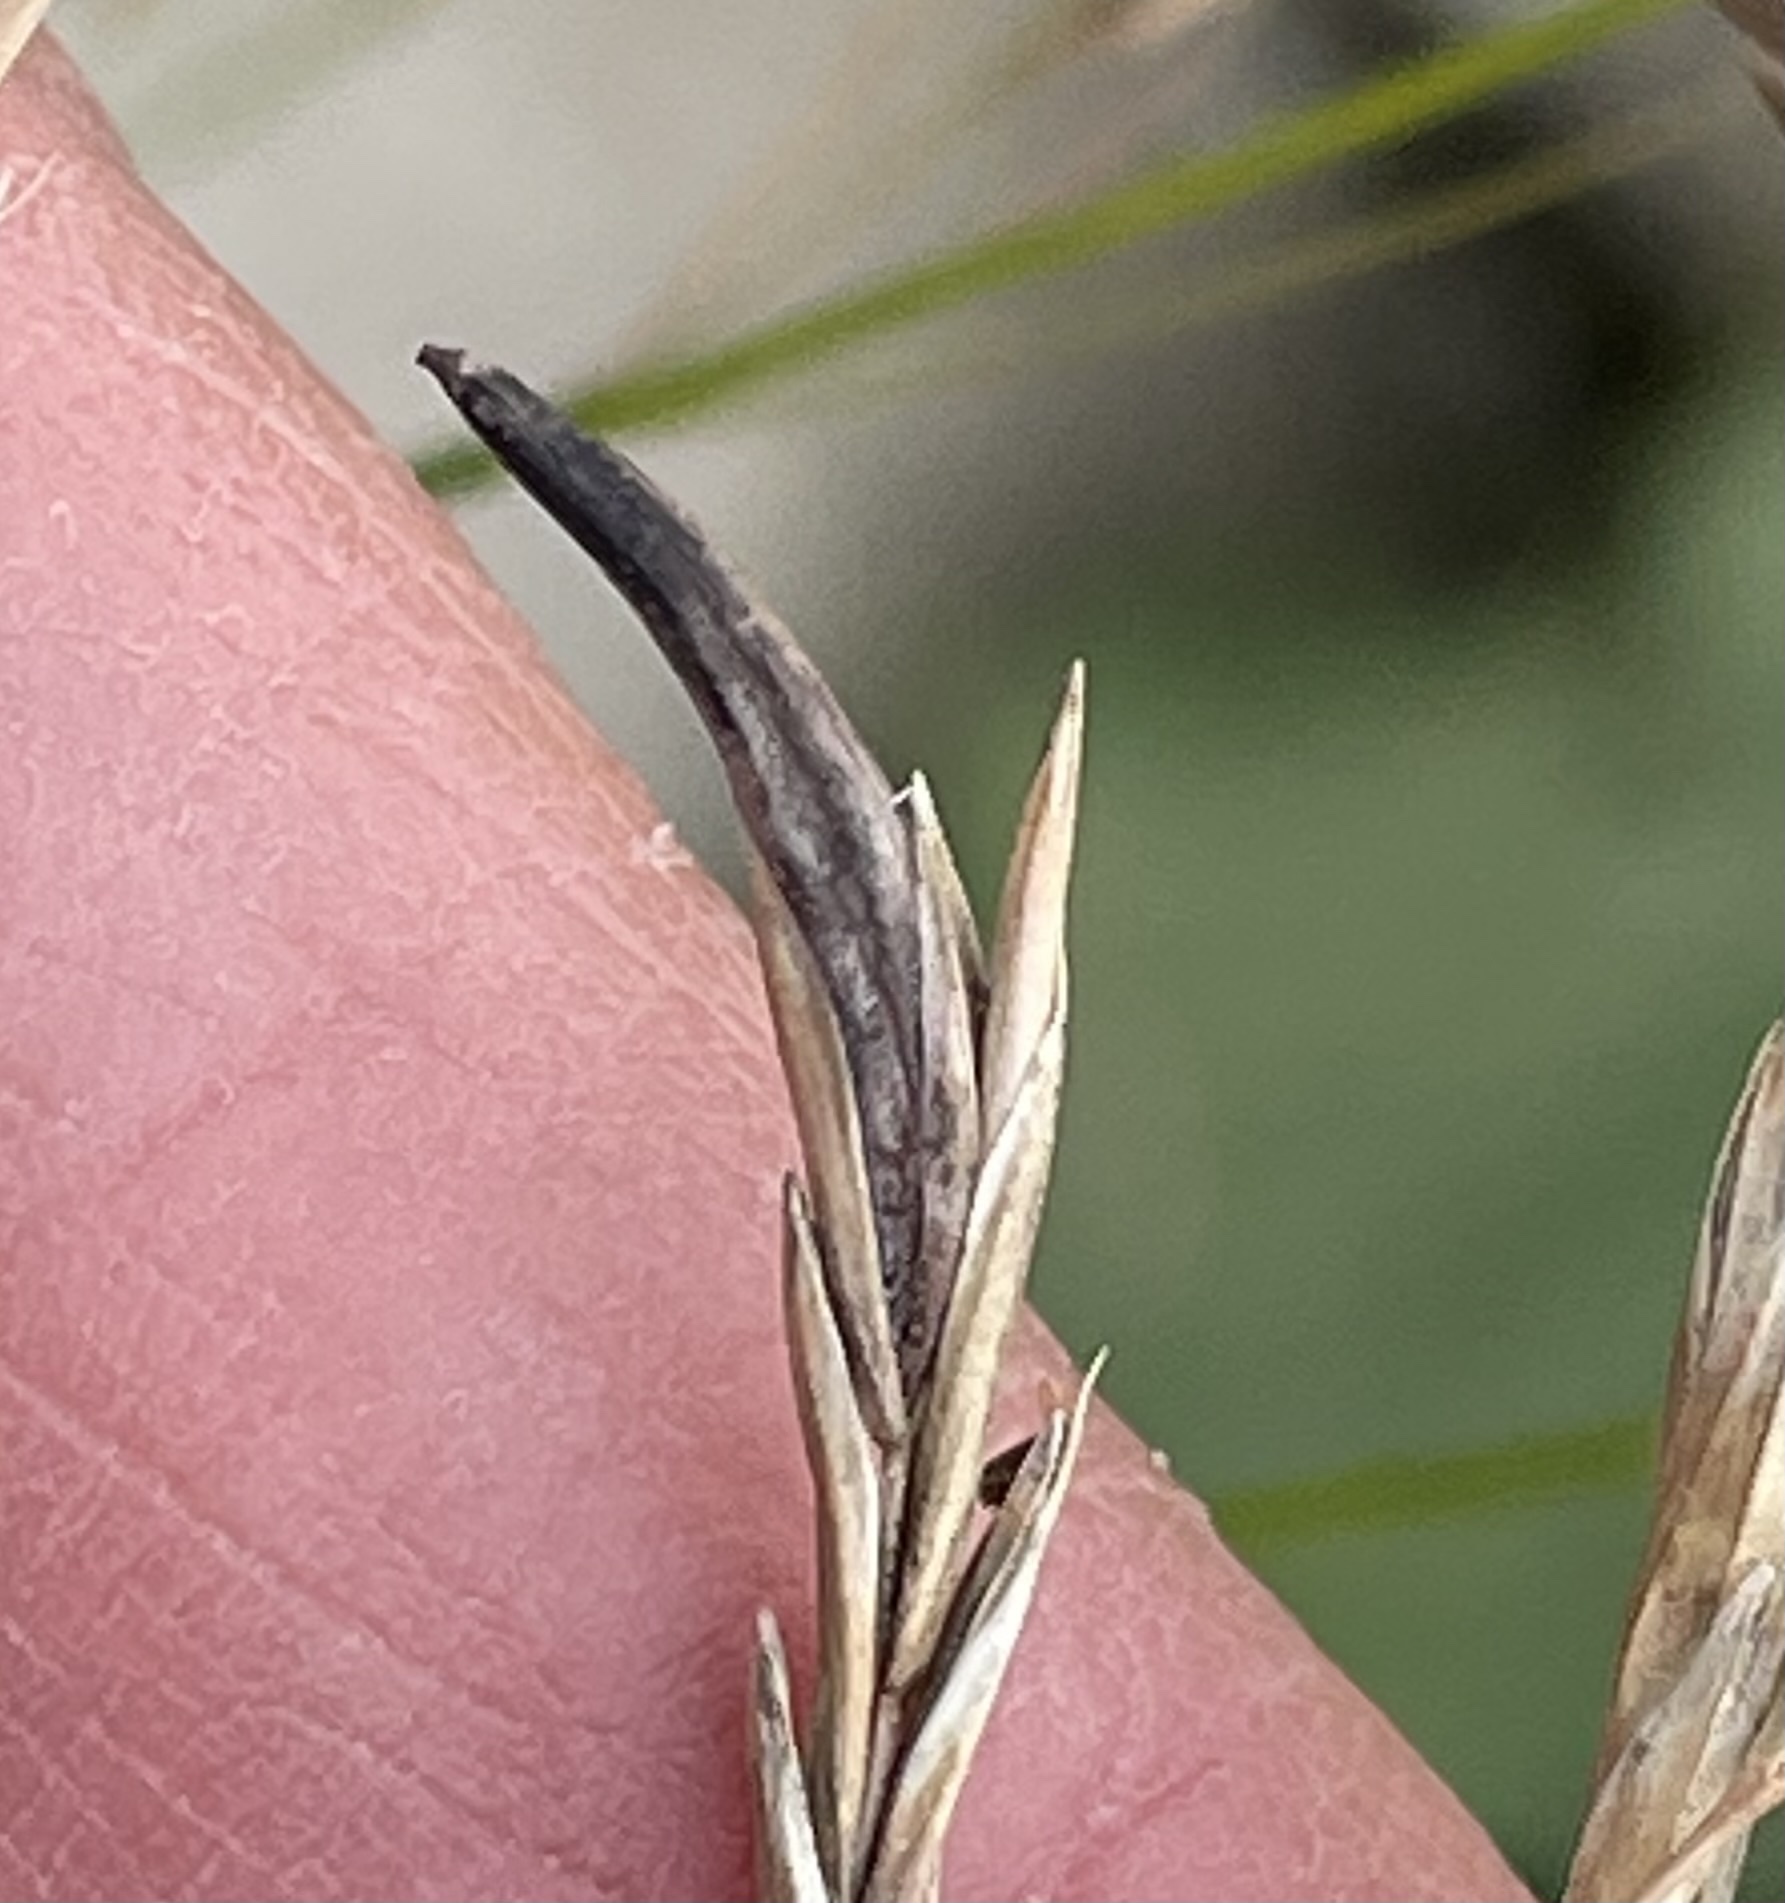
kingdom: Fungi
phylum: Ascomycota
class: Sordariomycetes
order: Hypocreales
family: Clavicipitaceae
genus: Claviceps
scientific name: Claviceps purpurea
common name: Rye ergot
